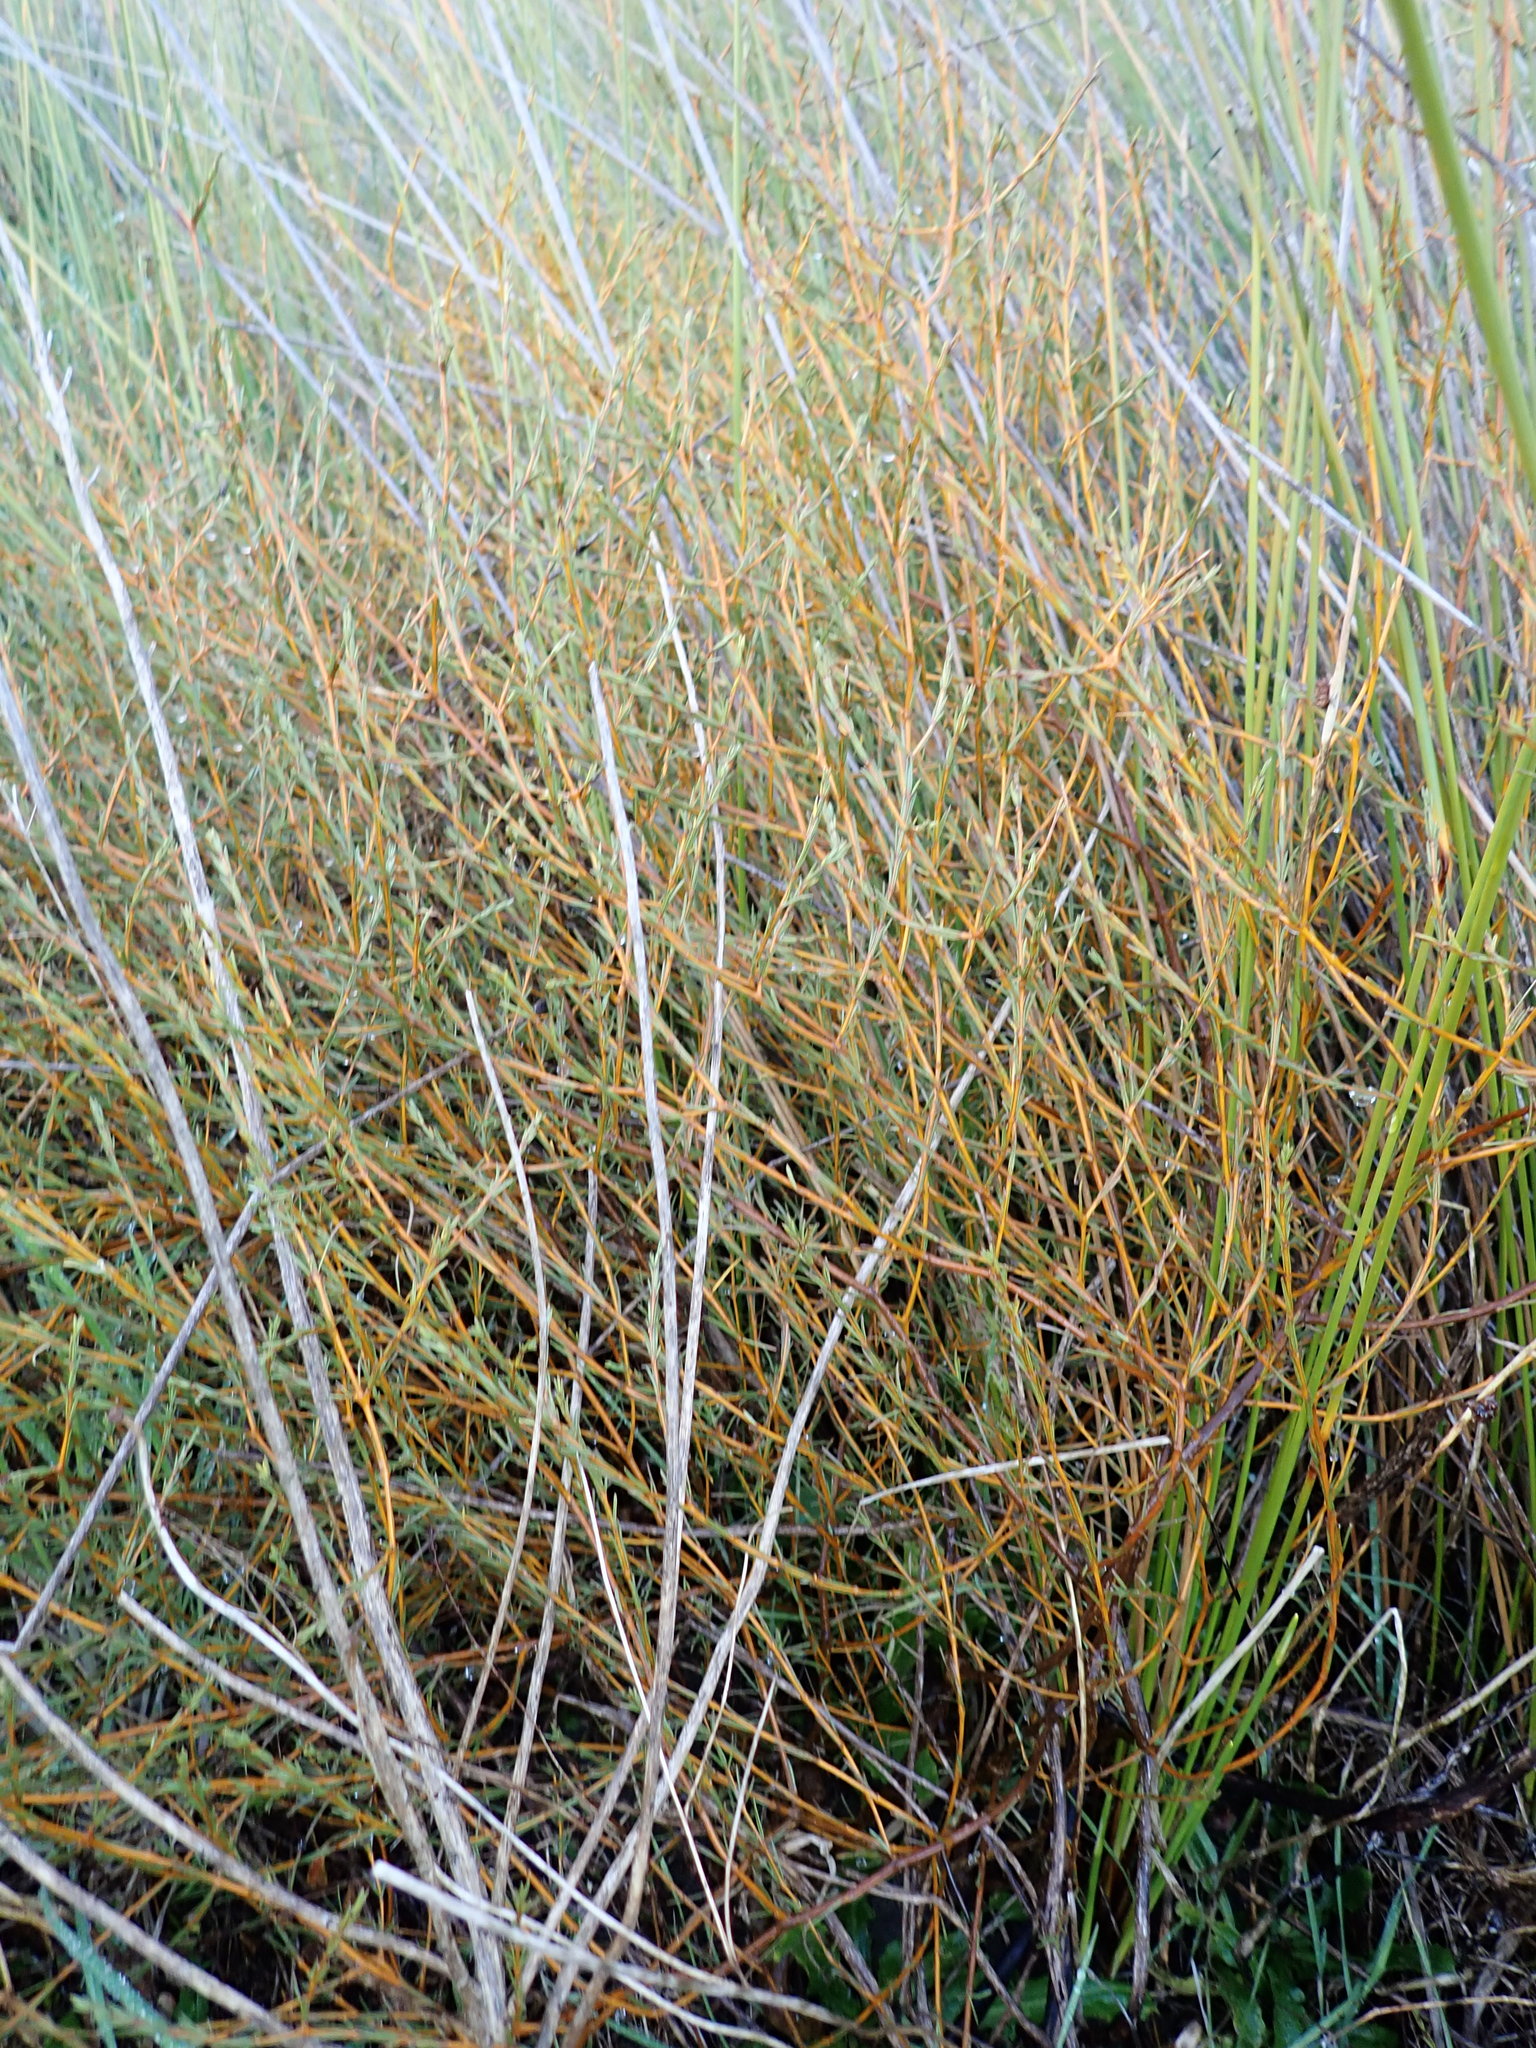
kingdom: Plantae
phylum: Tracheophyta
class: Magnoliopsida
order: Gentianales
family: Rubiaceae
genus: Coprosma
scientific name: Coprosma acerosa
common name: Sand coprosma
